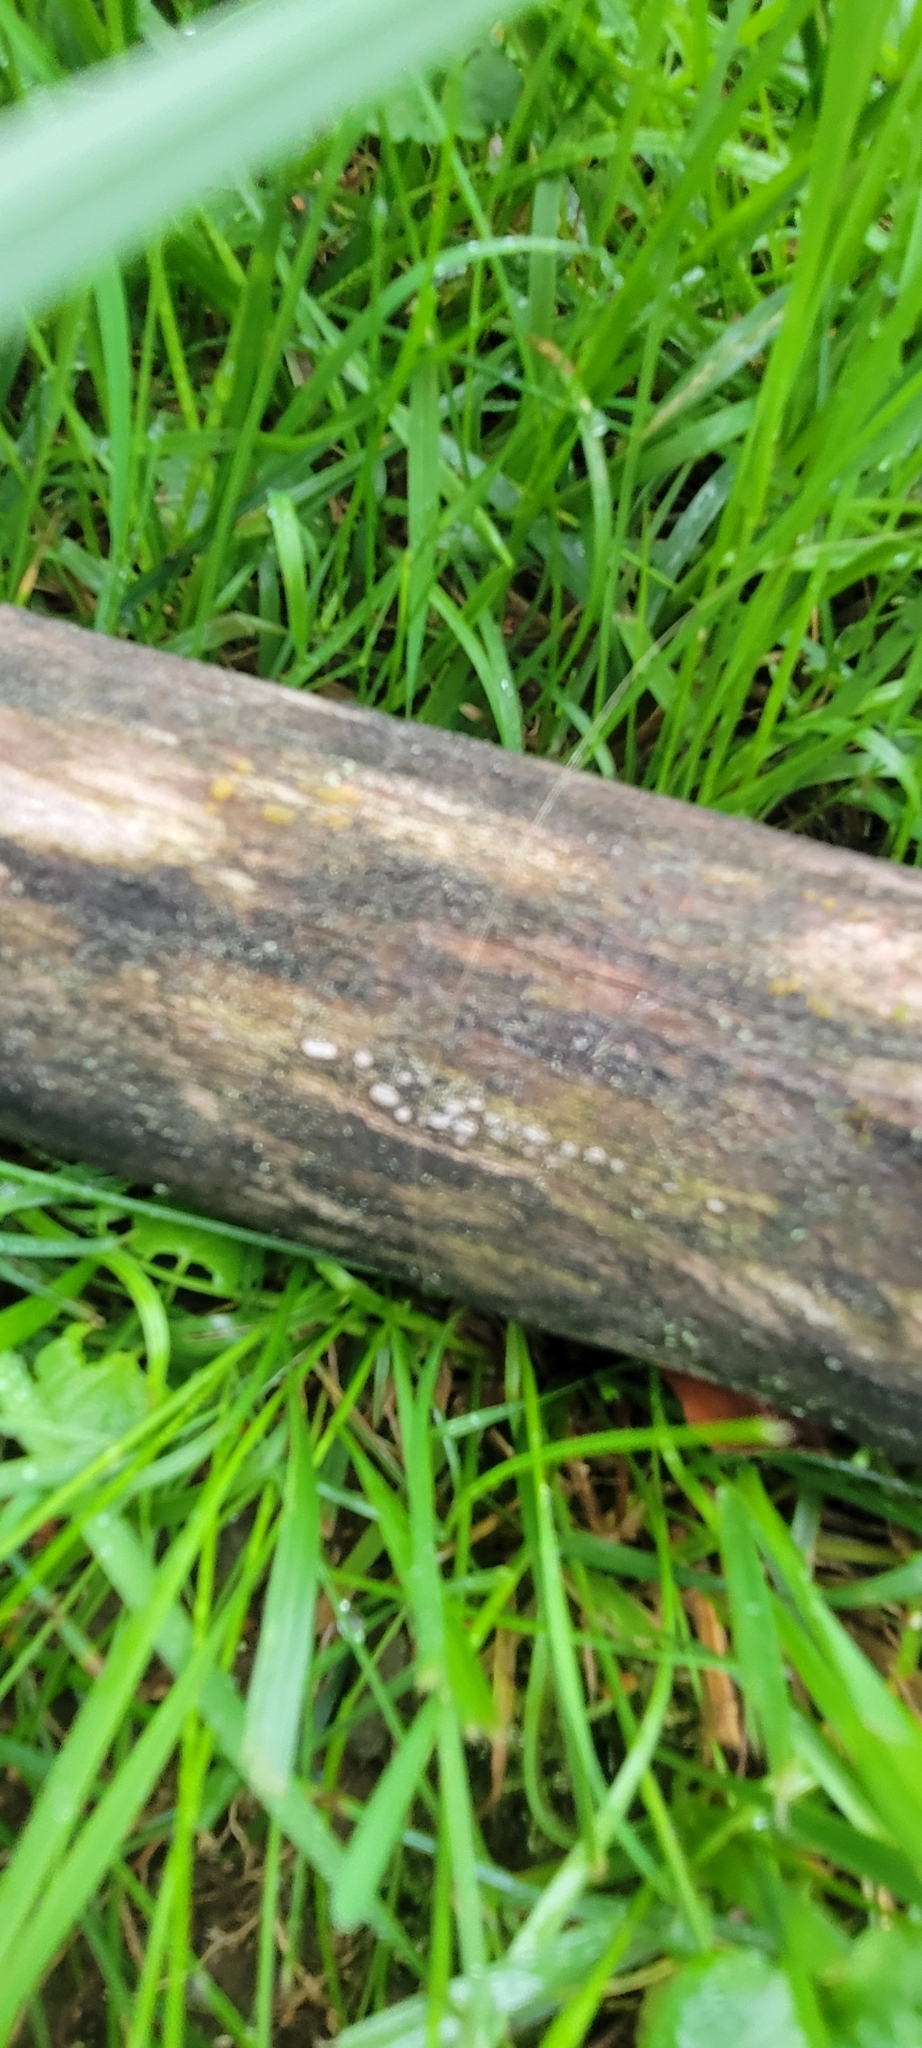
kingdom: Fungi
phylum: Ascomycota
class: Leotiomycetes
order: Chaetomellales
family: Marthamycetaceae
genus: Propolis
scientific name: Propolis farinosa
